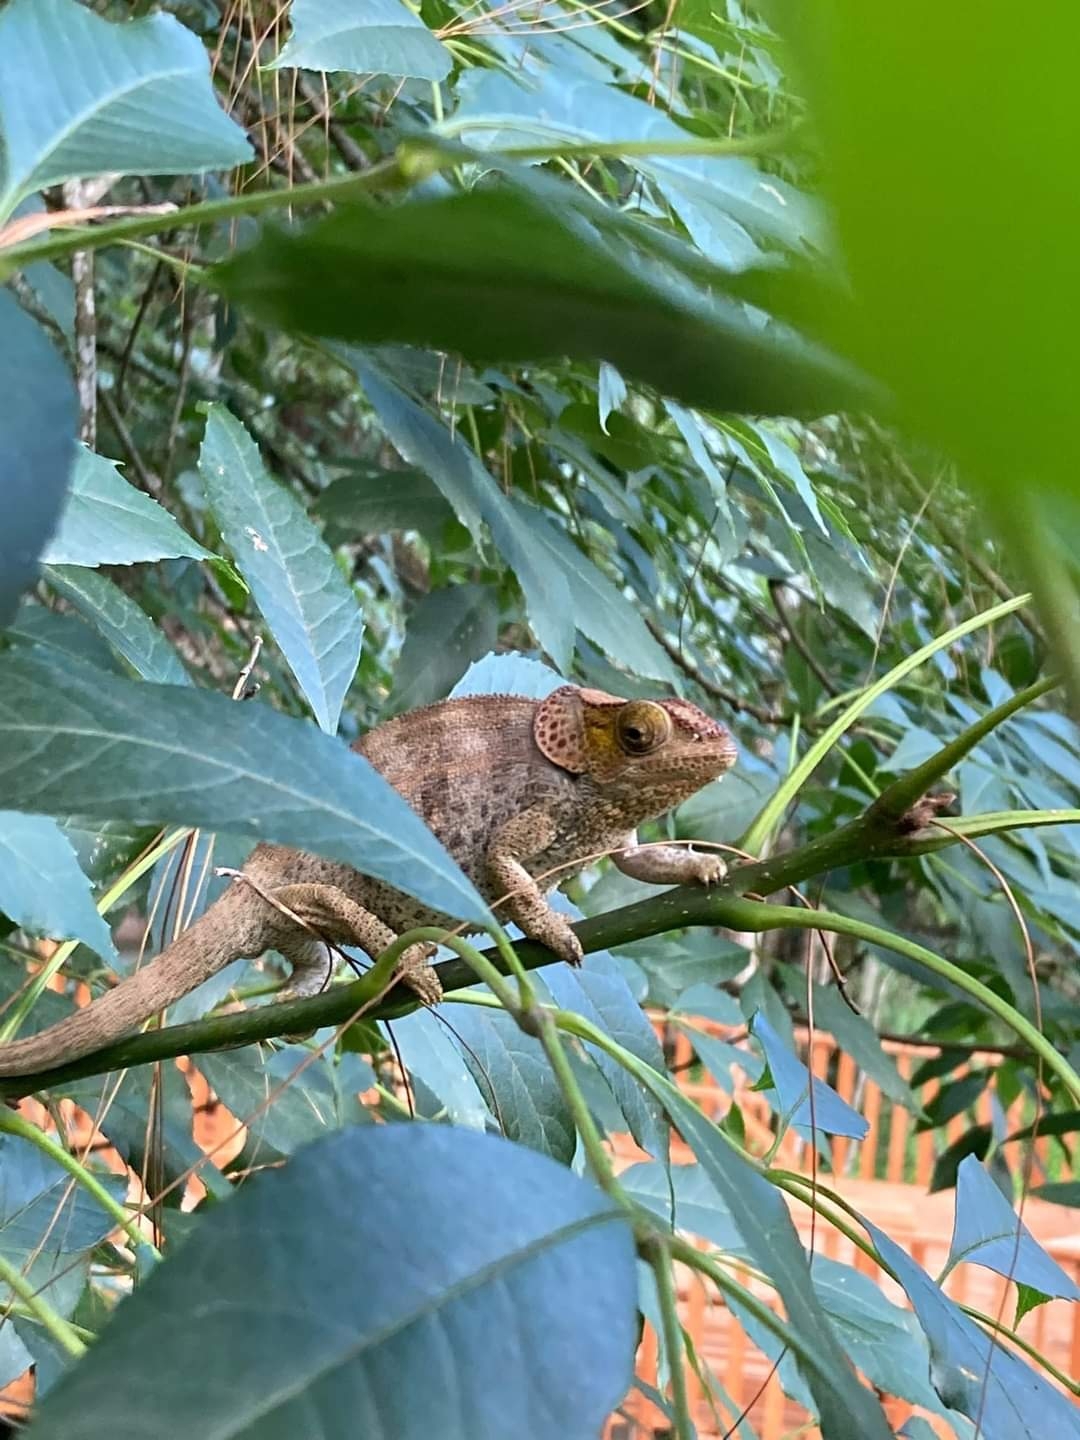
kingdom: Animalia
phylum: Chordata
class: Squamata
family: Chamaeleonidae
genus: Calumma
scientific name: Calumma brevicorne
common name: Short-horned chameleon
